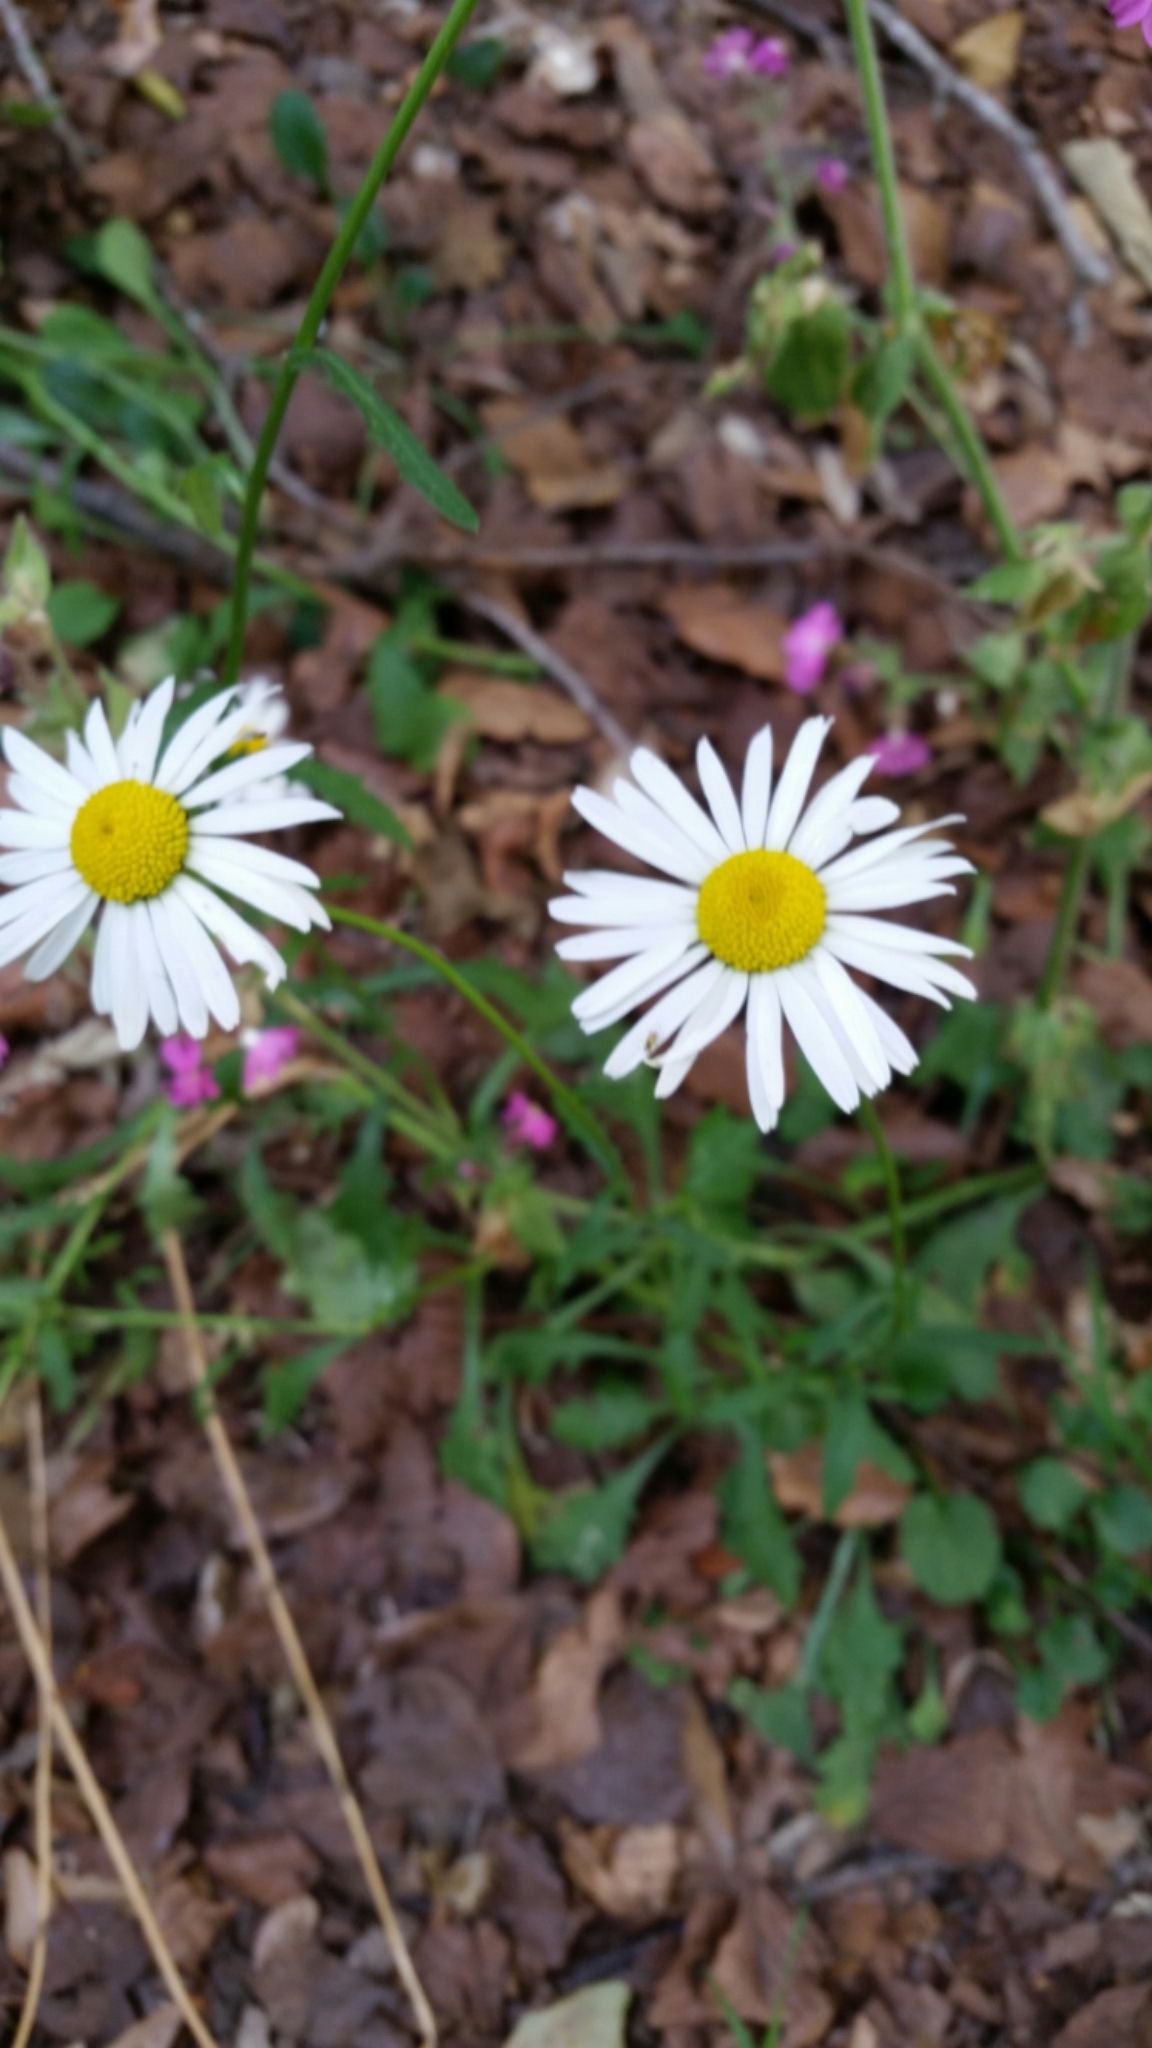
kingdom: Plantae
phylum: Tracheophyta
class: Magnoliopsida
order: Asterales
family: Asteraceae
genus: Leucanthemum
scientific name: Leucanthemum vulgare
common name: Oxeye daisy
